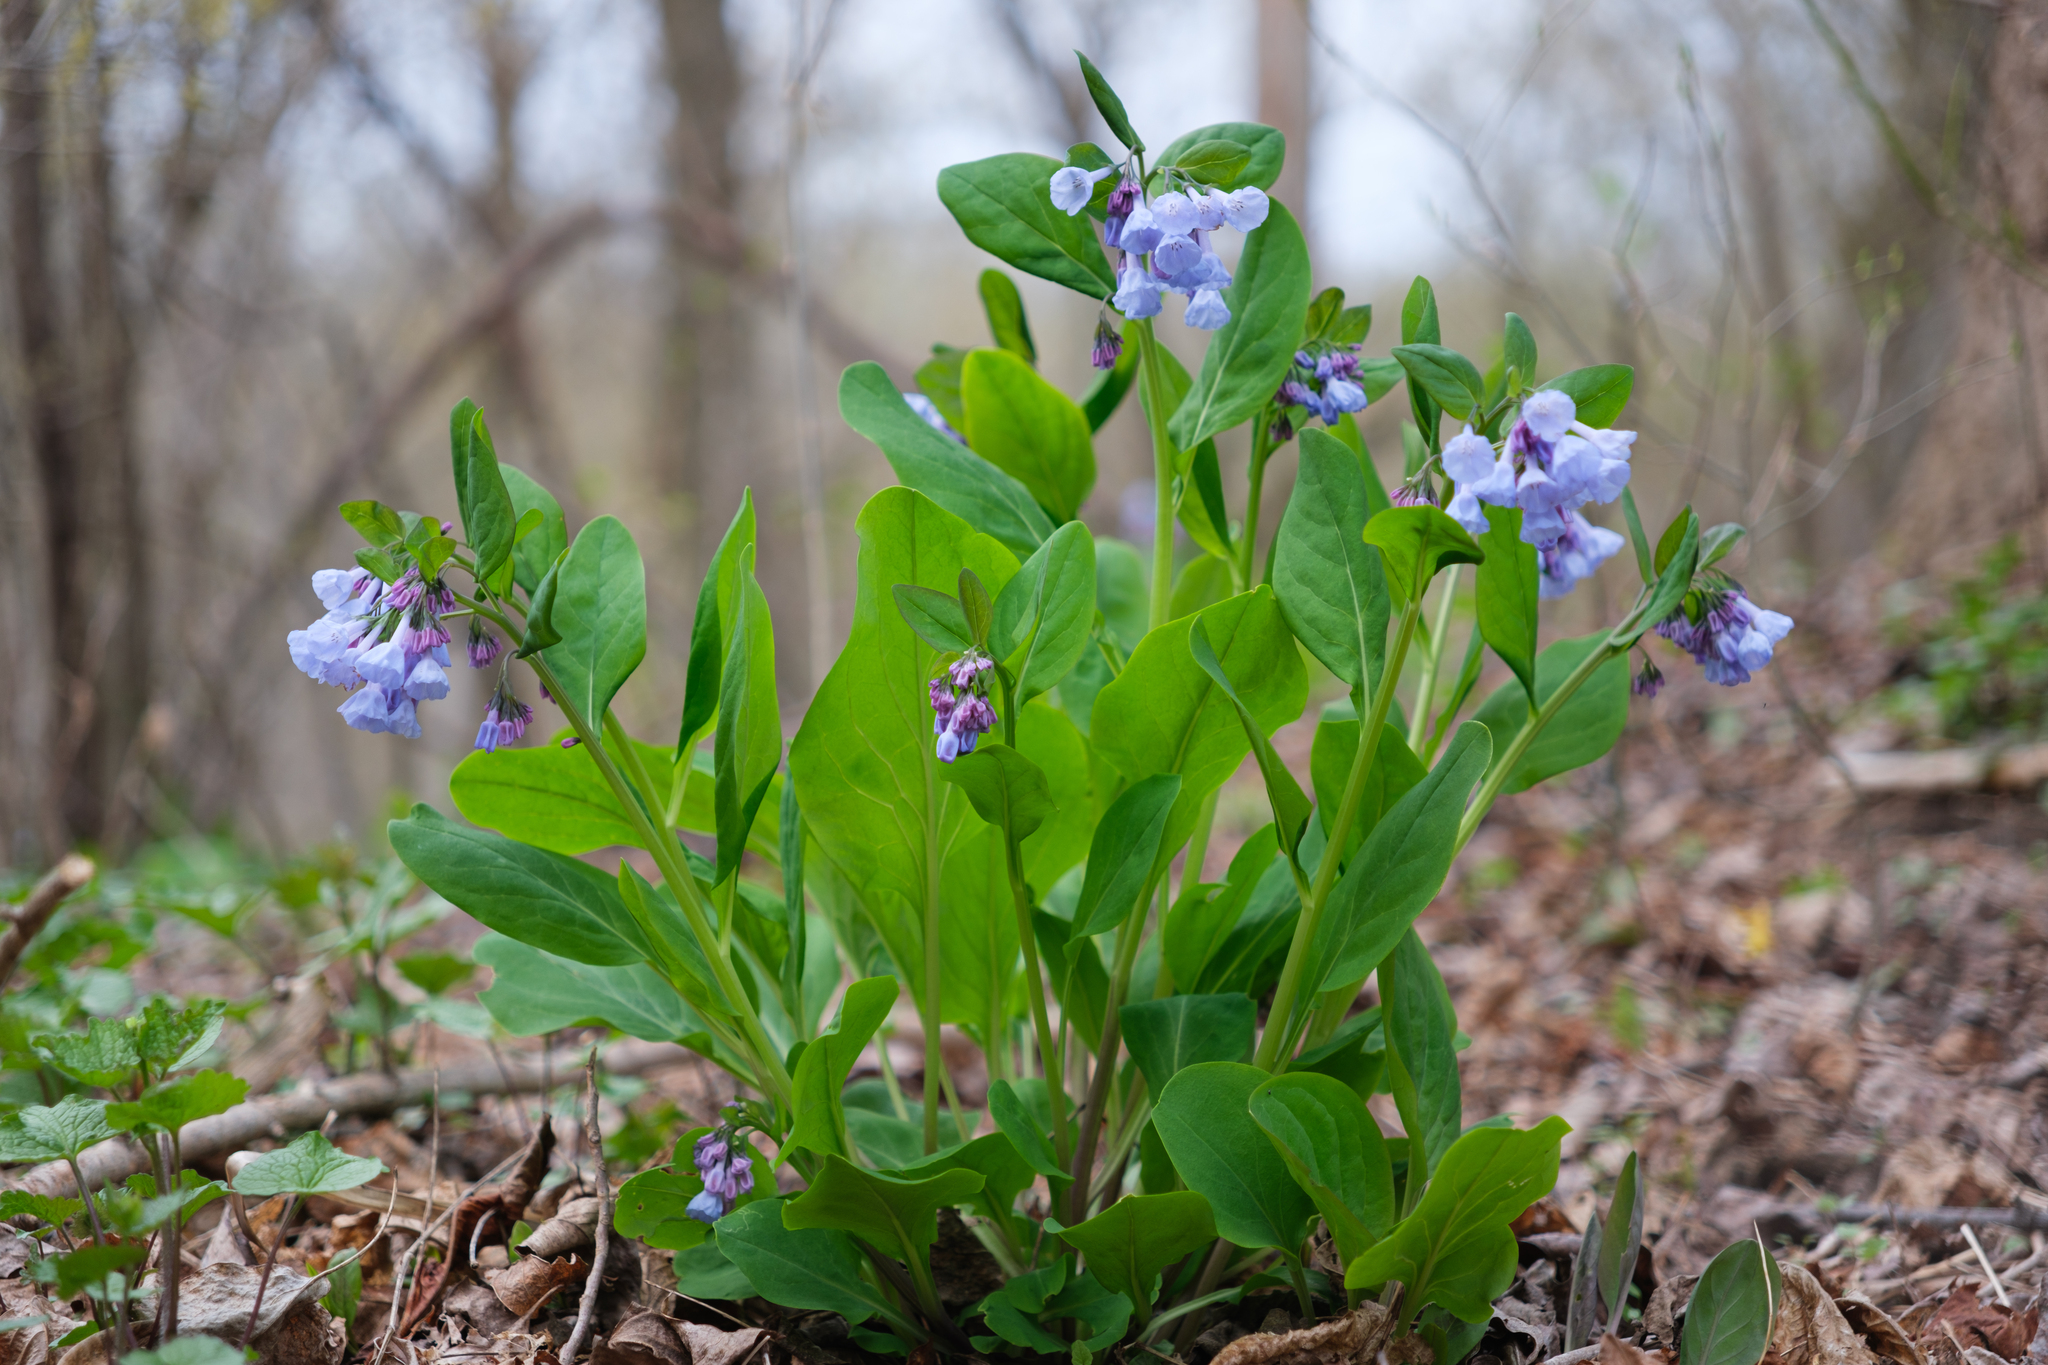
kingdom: Plantae
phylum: Tracheophyta
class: Magnoliopsida
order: Boraginales
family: Boraginaceae
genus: Mertensia
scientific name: Mertensia virginica
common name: Virginia bluebells
